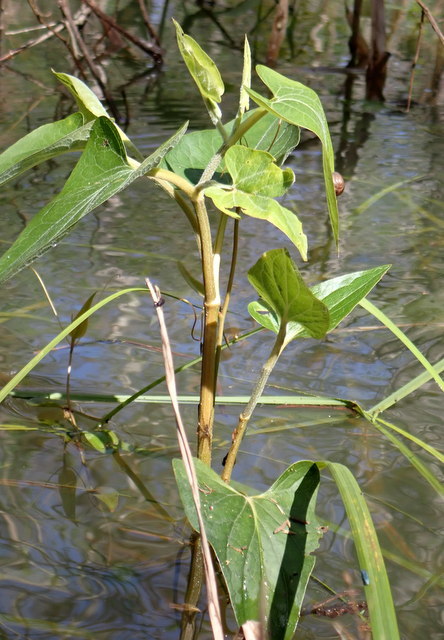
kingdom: Plantae
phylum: Tracheophyta
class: Magnoliopsida
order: Piperales
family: Saururaceae
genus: Saururus
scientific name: Saururus cernuus
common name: Lizard's-tail
